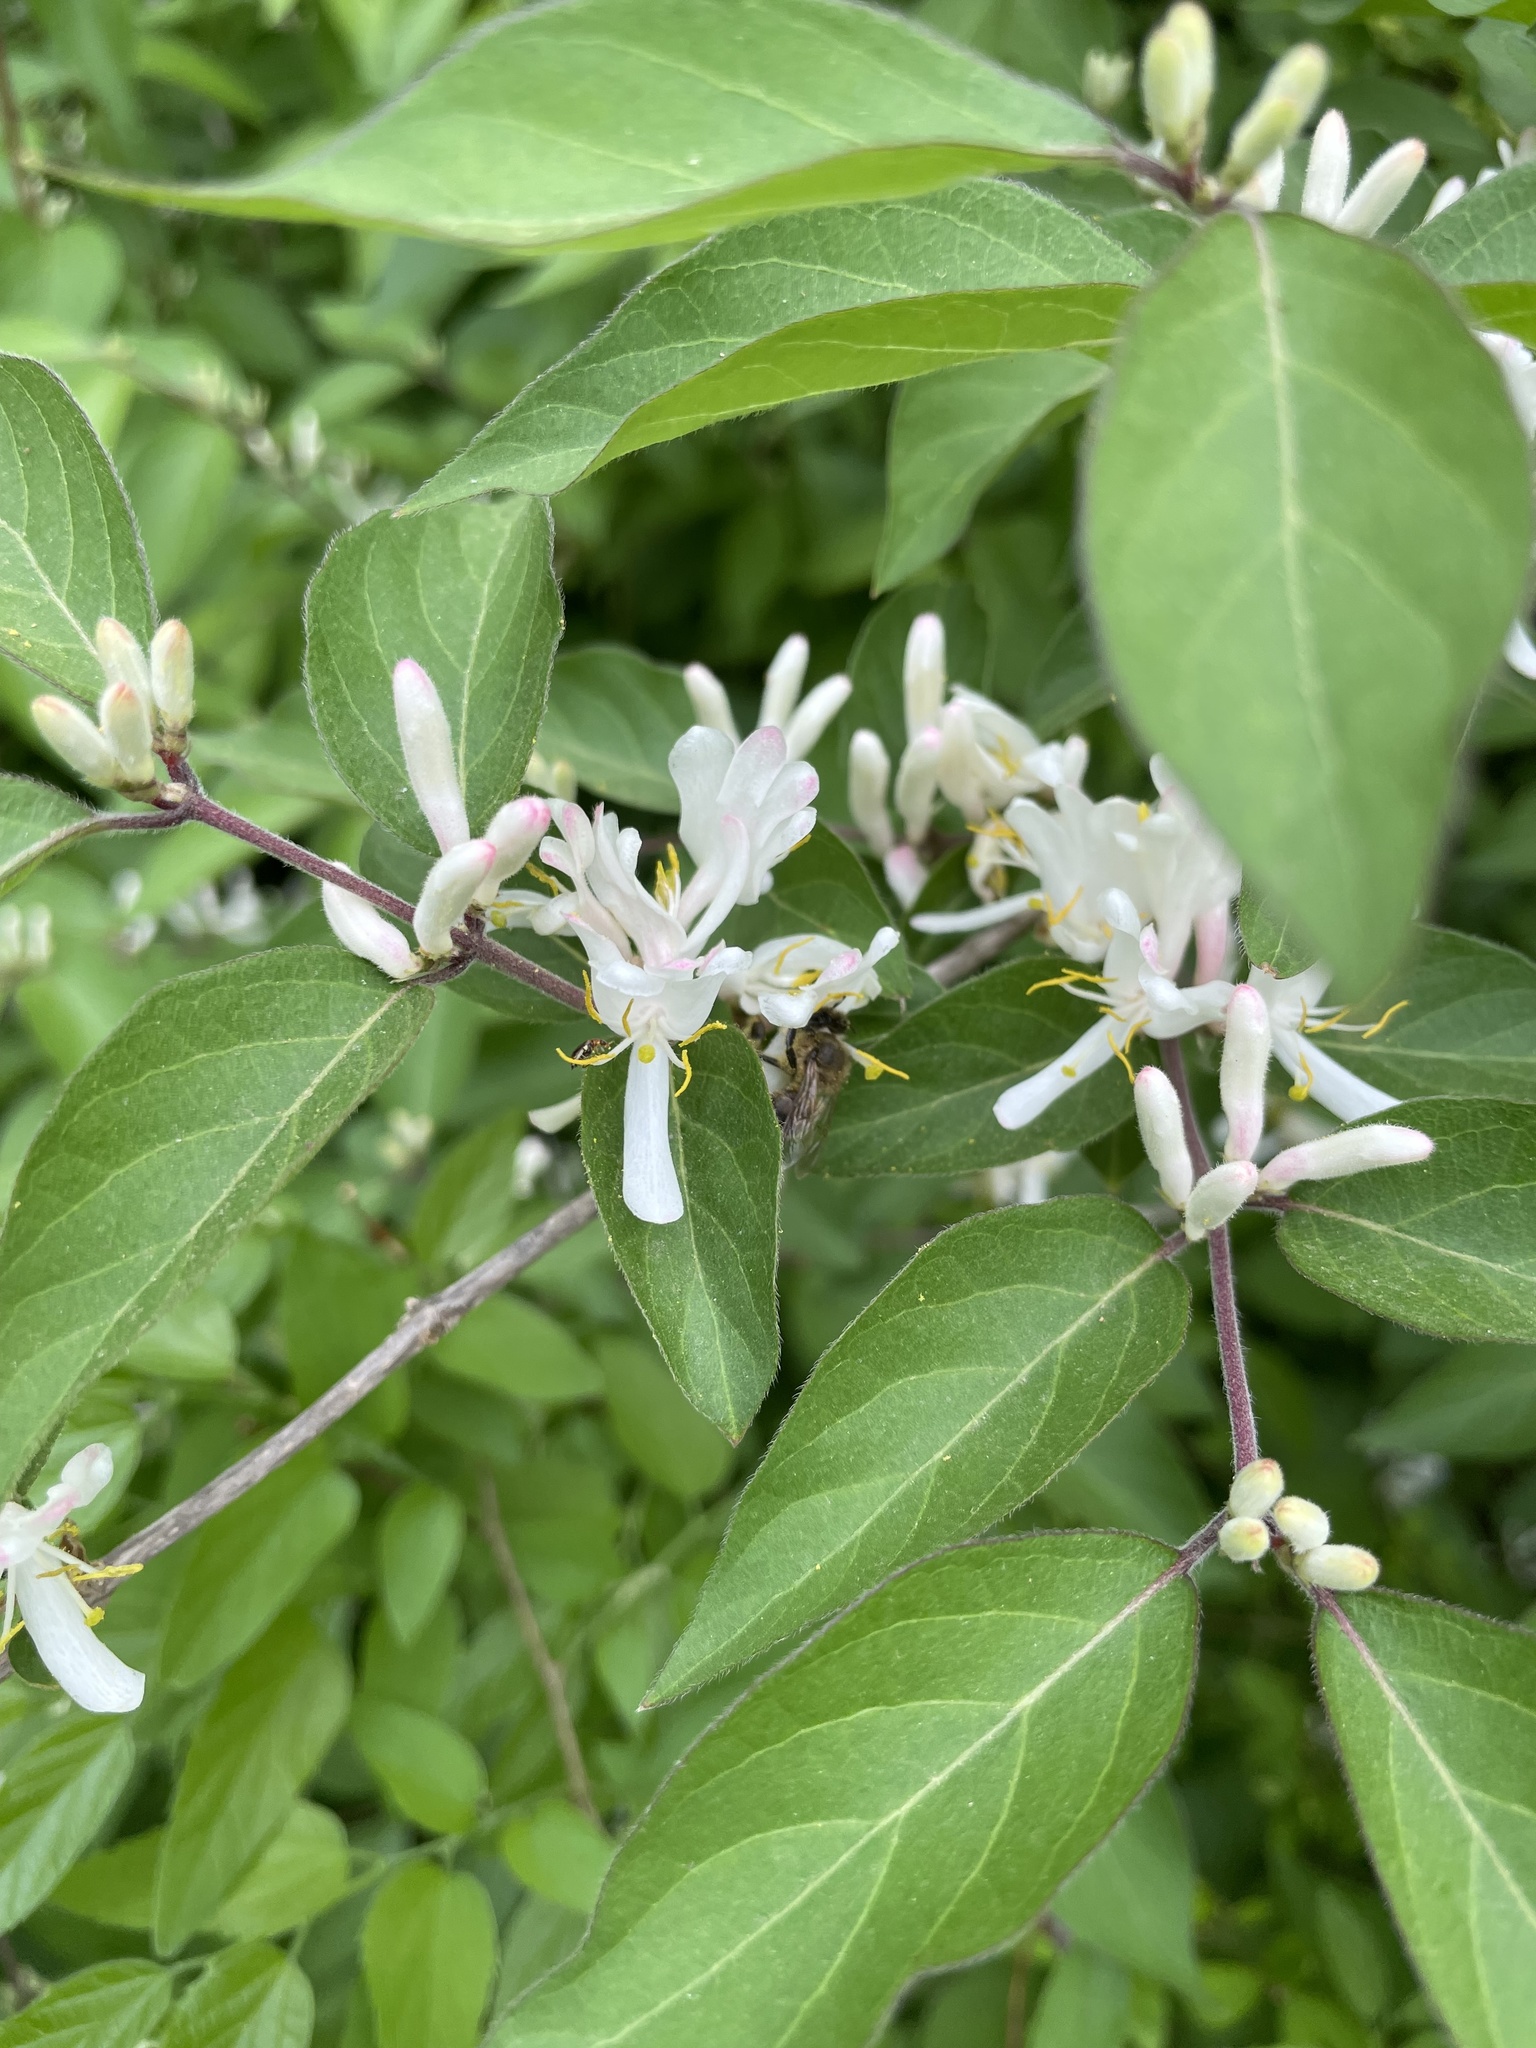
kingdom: Animalia
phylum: Arthropoda
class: Insecta
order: Hymenoptera
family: Apidae
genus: Apis
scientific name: Apis mellifera
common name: Honey bee
